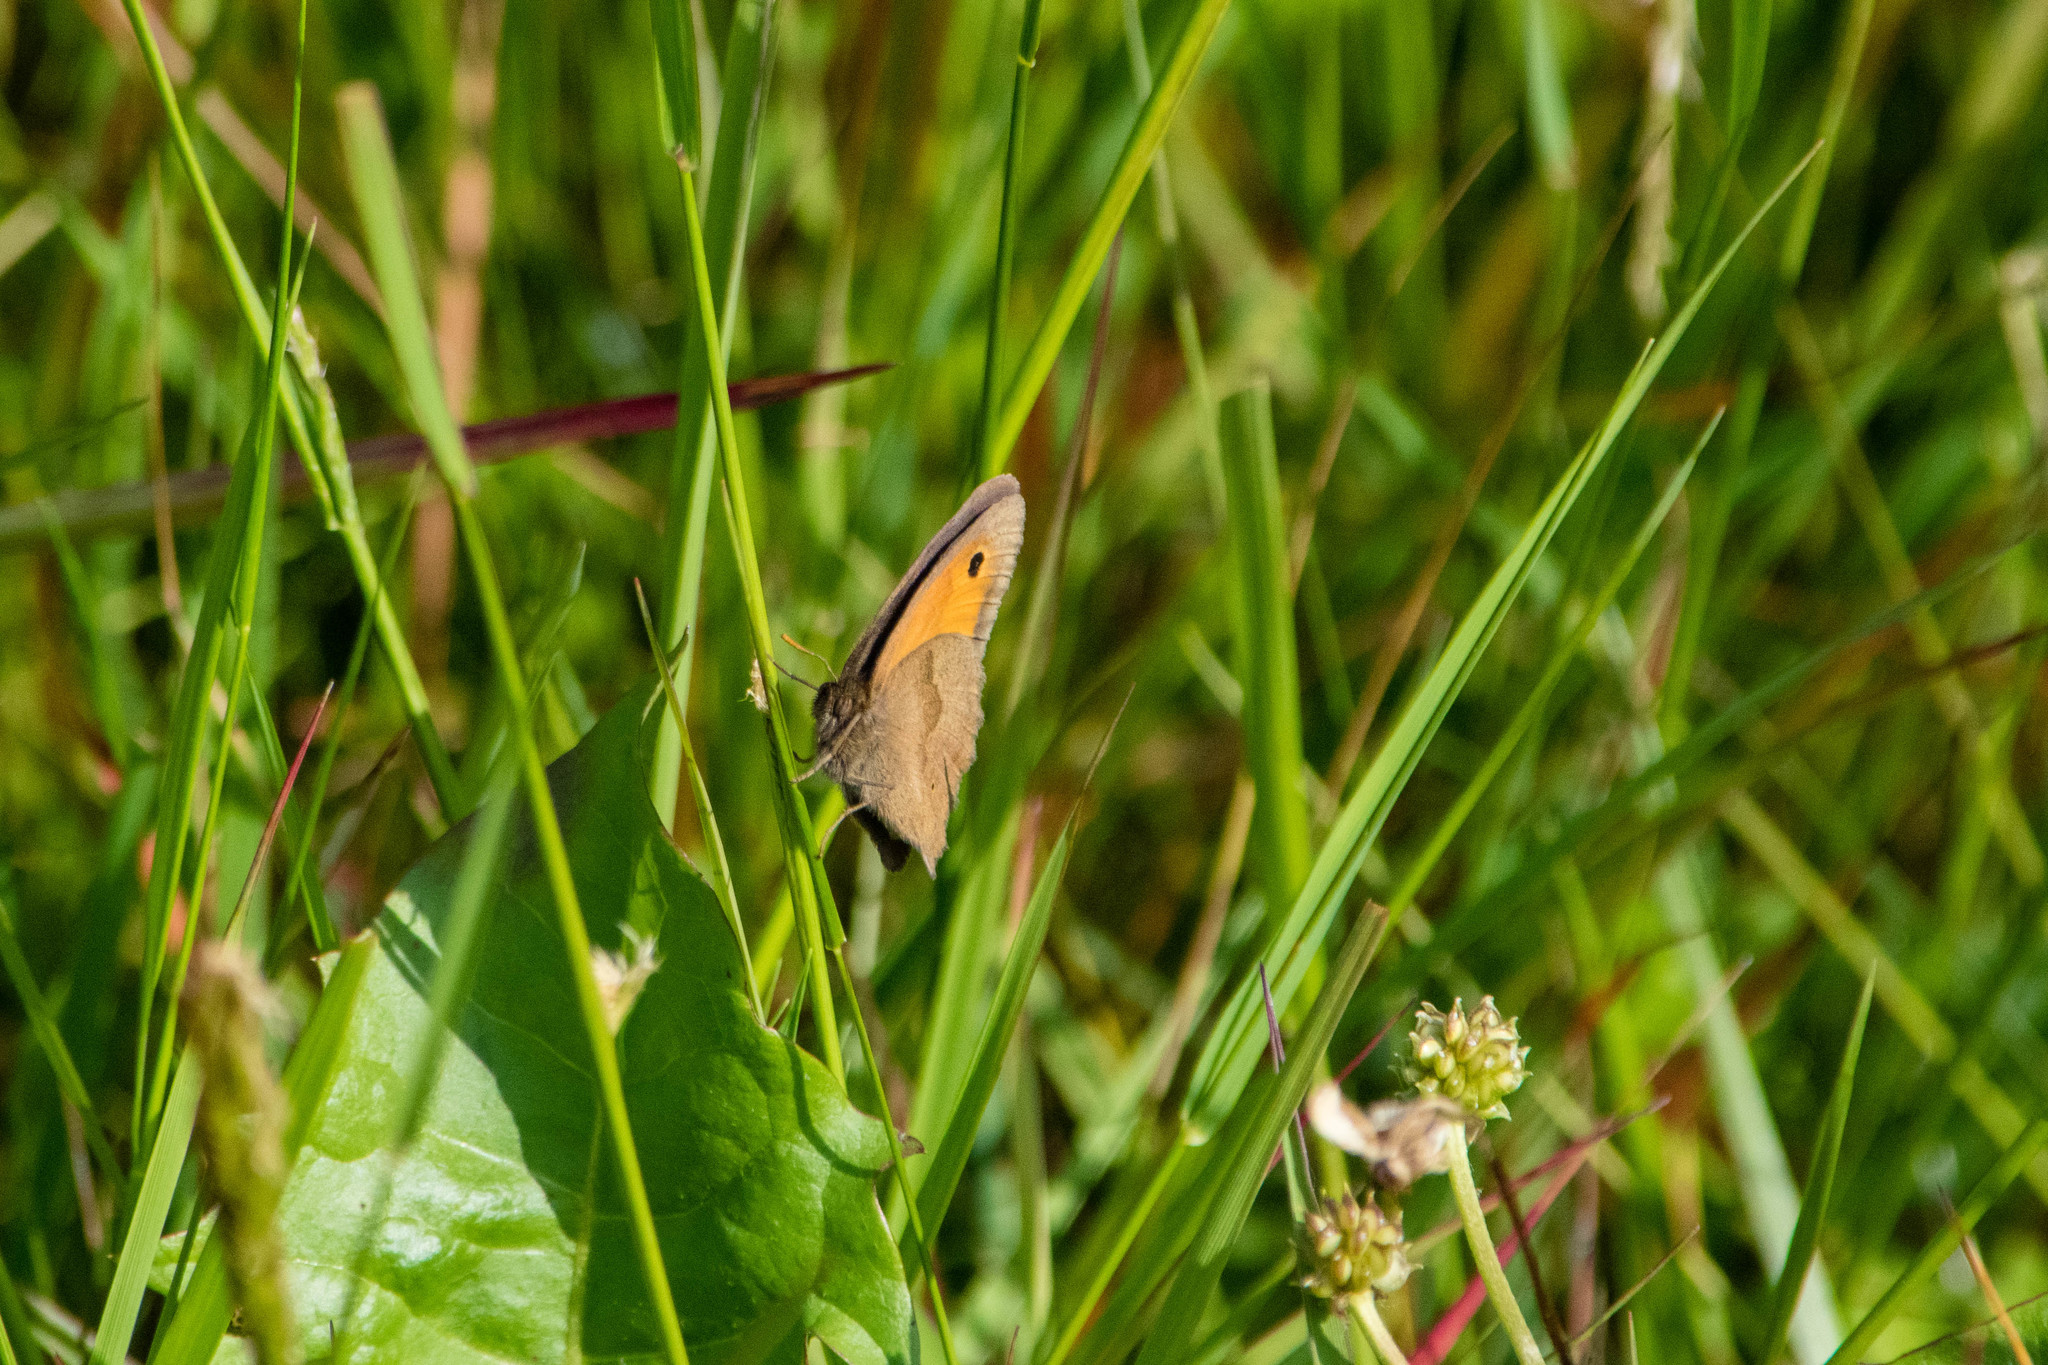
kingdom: Animalia
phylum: Arthropoda
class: Insecta
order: Lepidoptera
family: Nymphalidae
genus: Maniola
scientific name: Maniola jurtina
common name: Meadow brown
